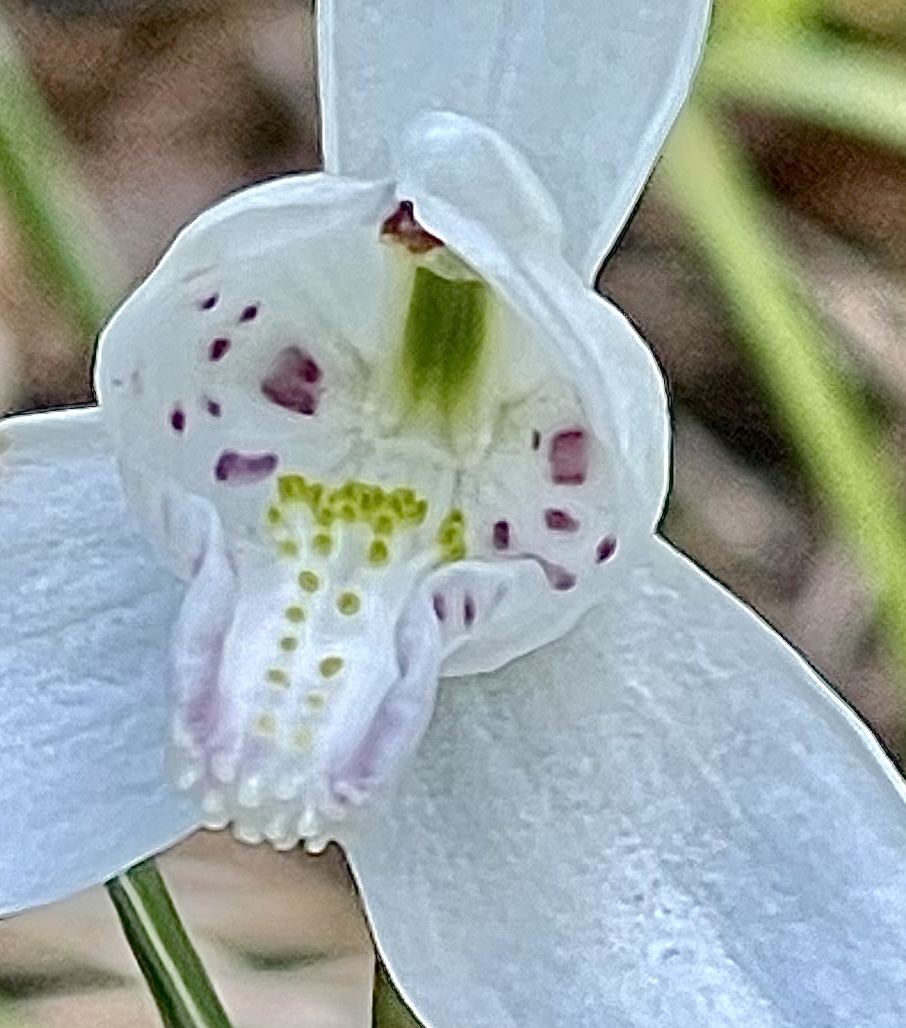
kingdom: Plantae
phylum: Tracheophyta
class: Liliopsida
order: Asparagales
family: Orchidaceae
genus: Codonorchis
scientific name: Codonorchis lessonii
